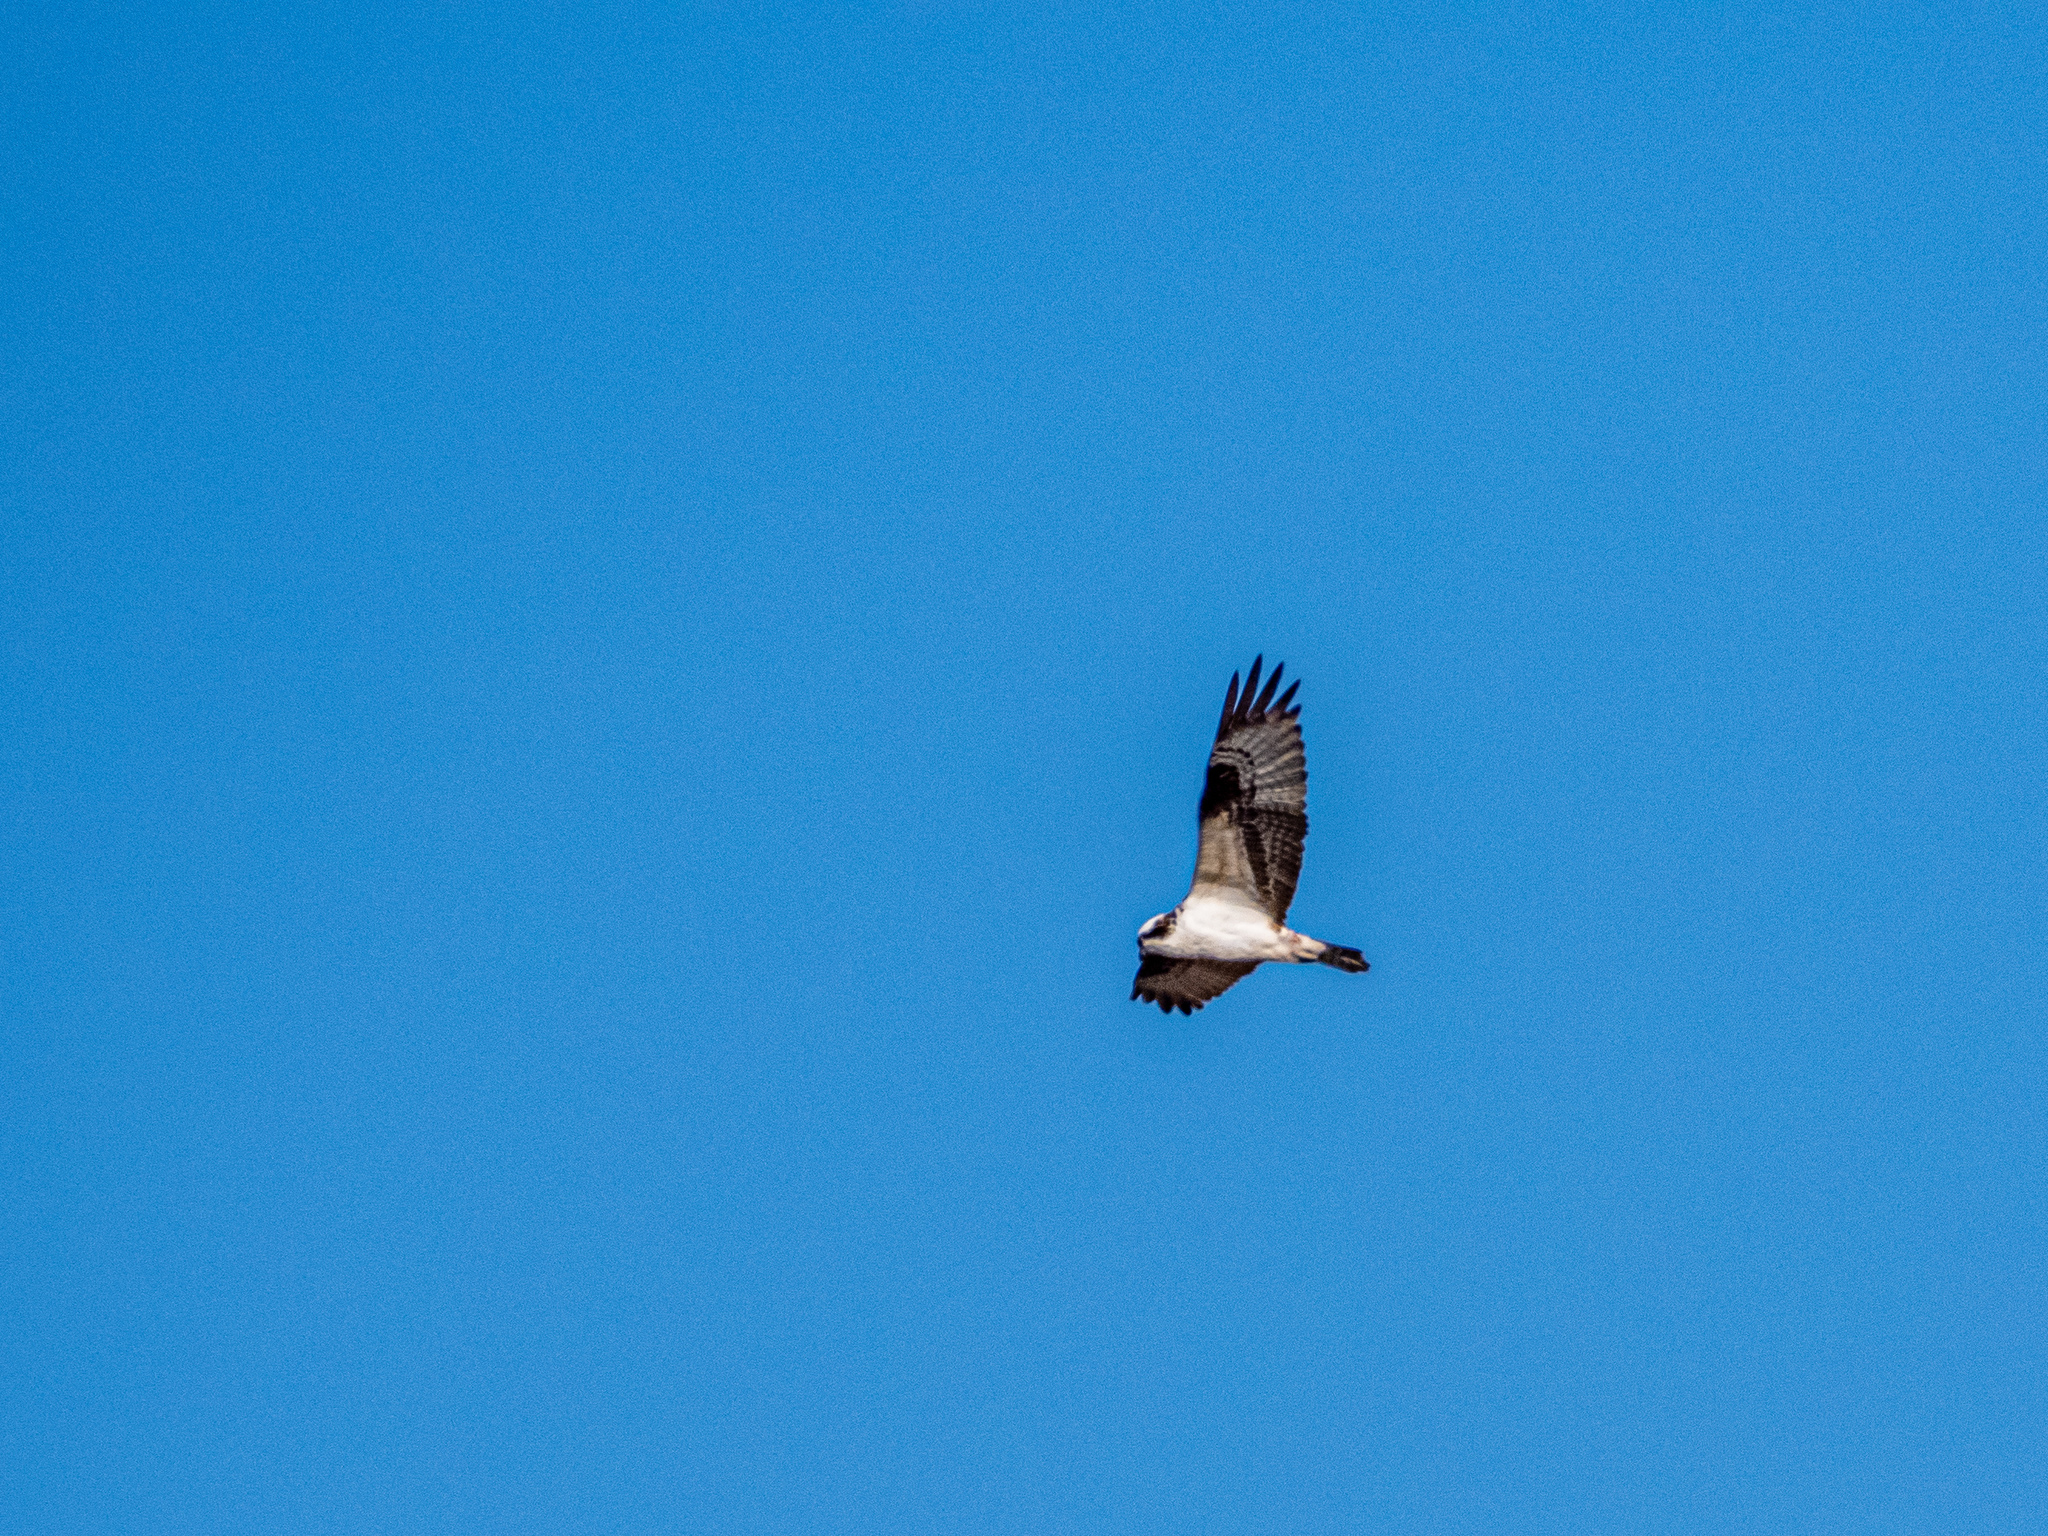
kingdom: Animalia
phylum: Chordata
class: Aves
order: Accipitriformes
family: Pandionidae
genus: Pandion
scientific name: Pandion haliaetus
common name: Osprey
